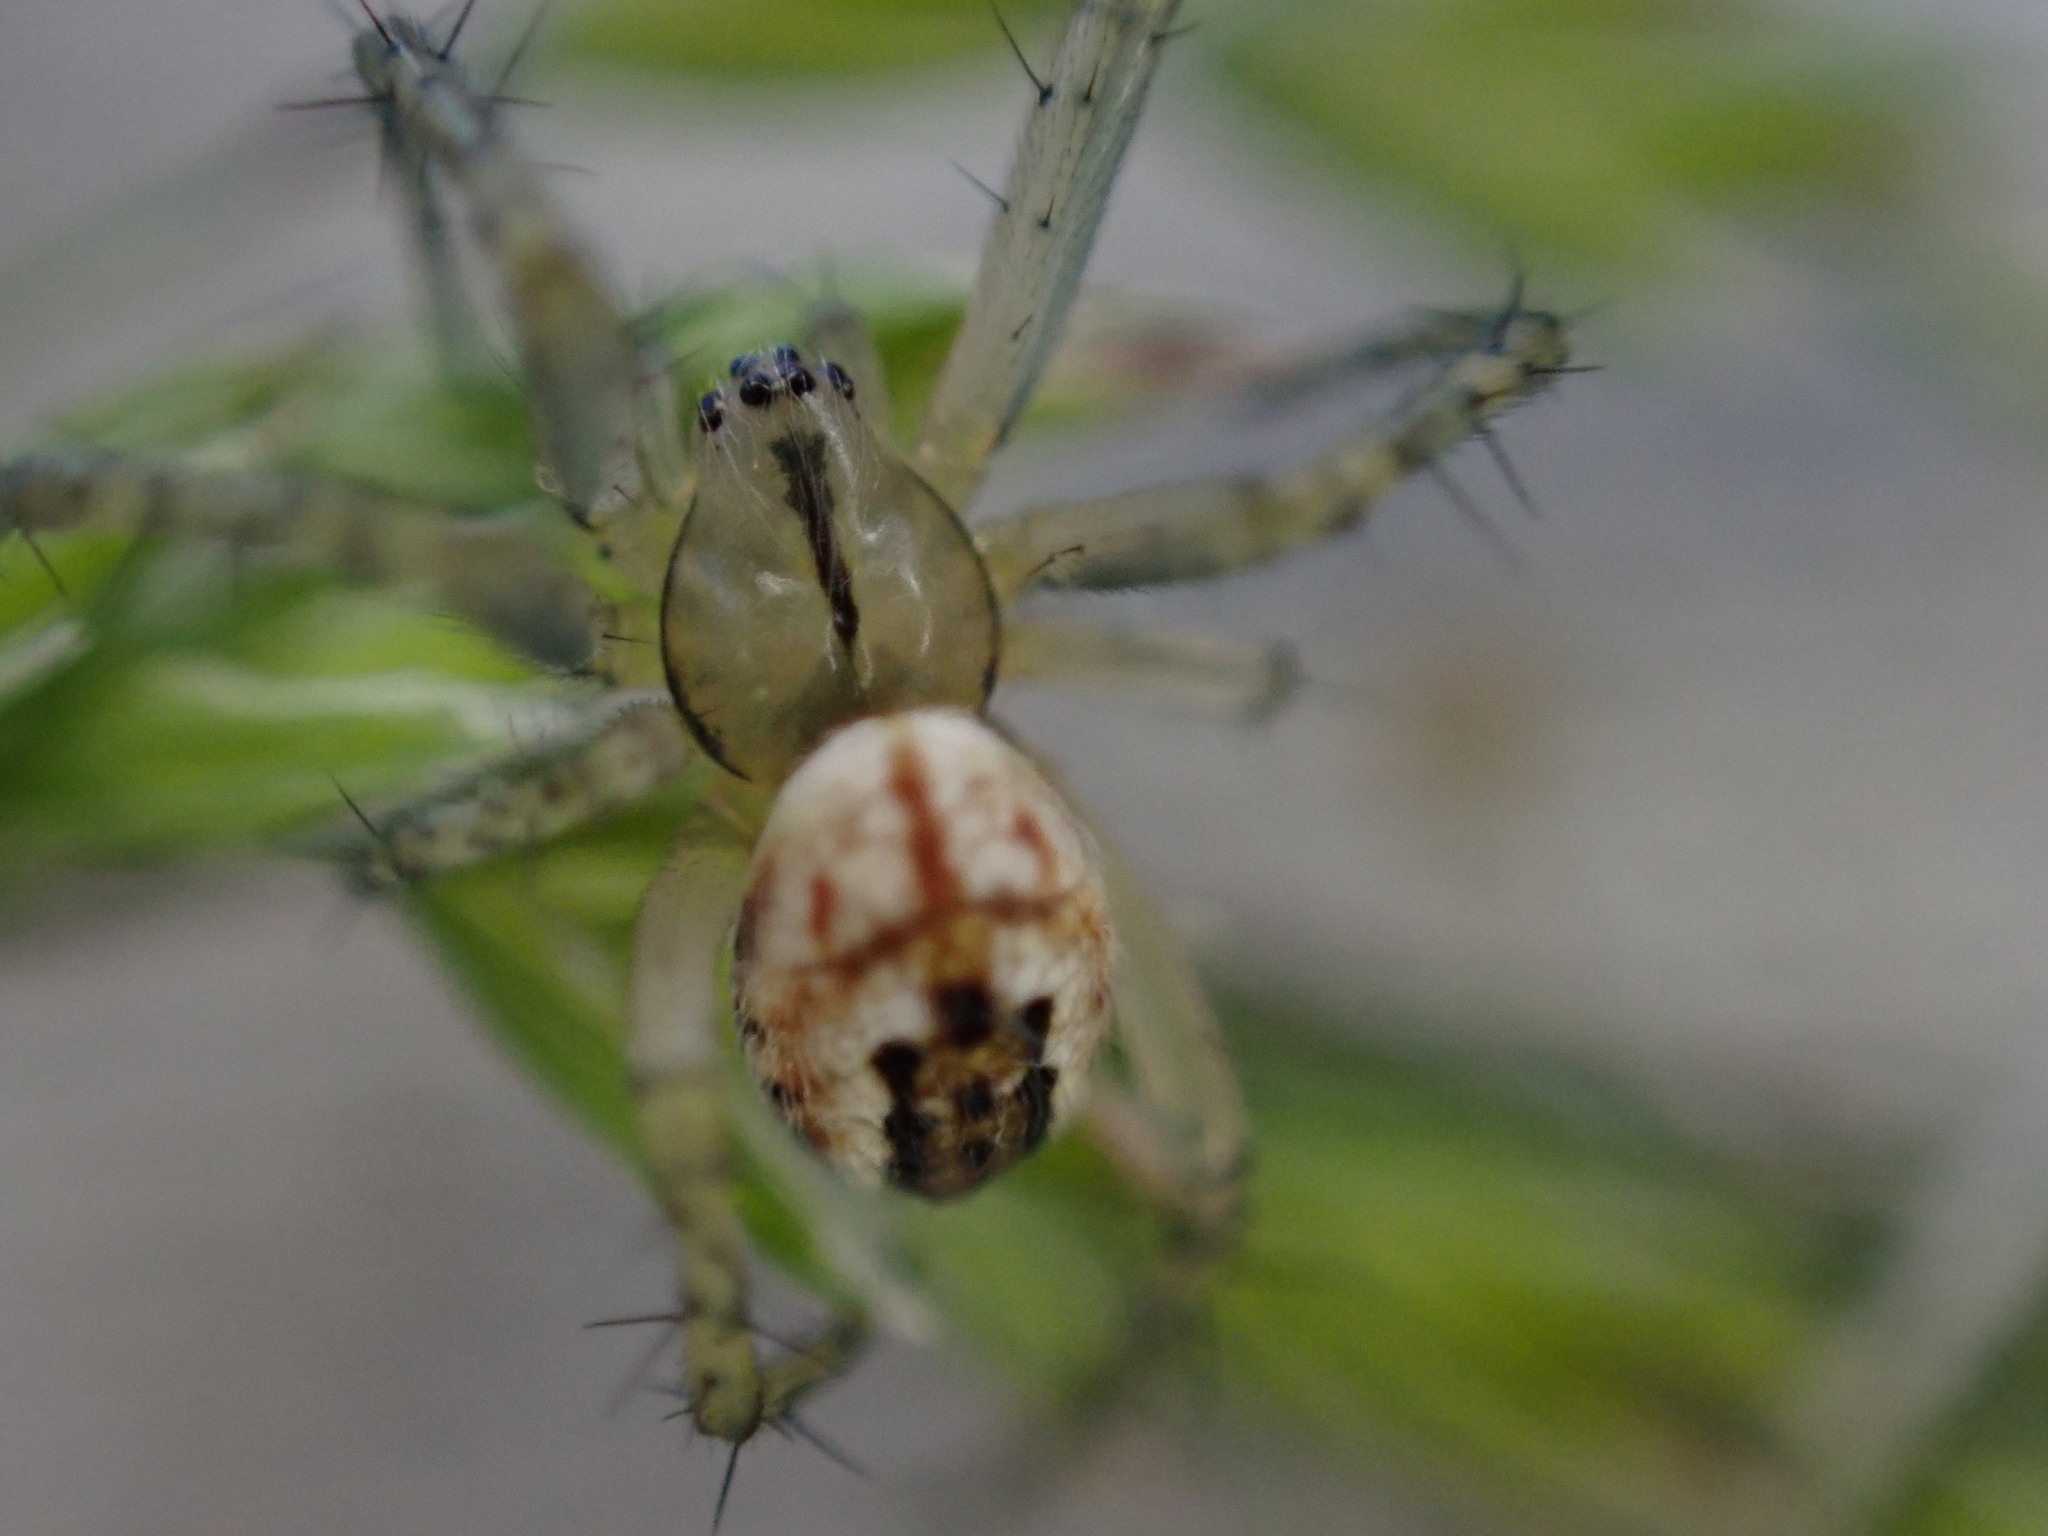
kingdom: Animalia
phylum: Arthropoda
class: Arachnida
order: Araneae
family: Araneidae
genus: Mangora
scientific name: Mangora acalypha
